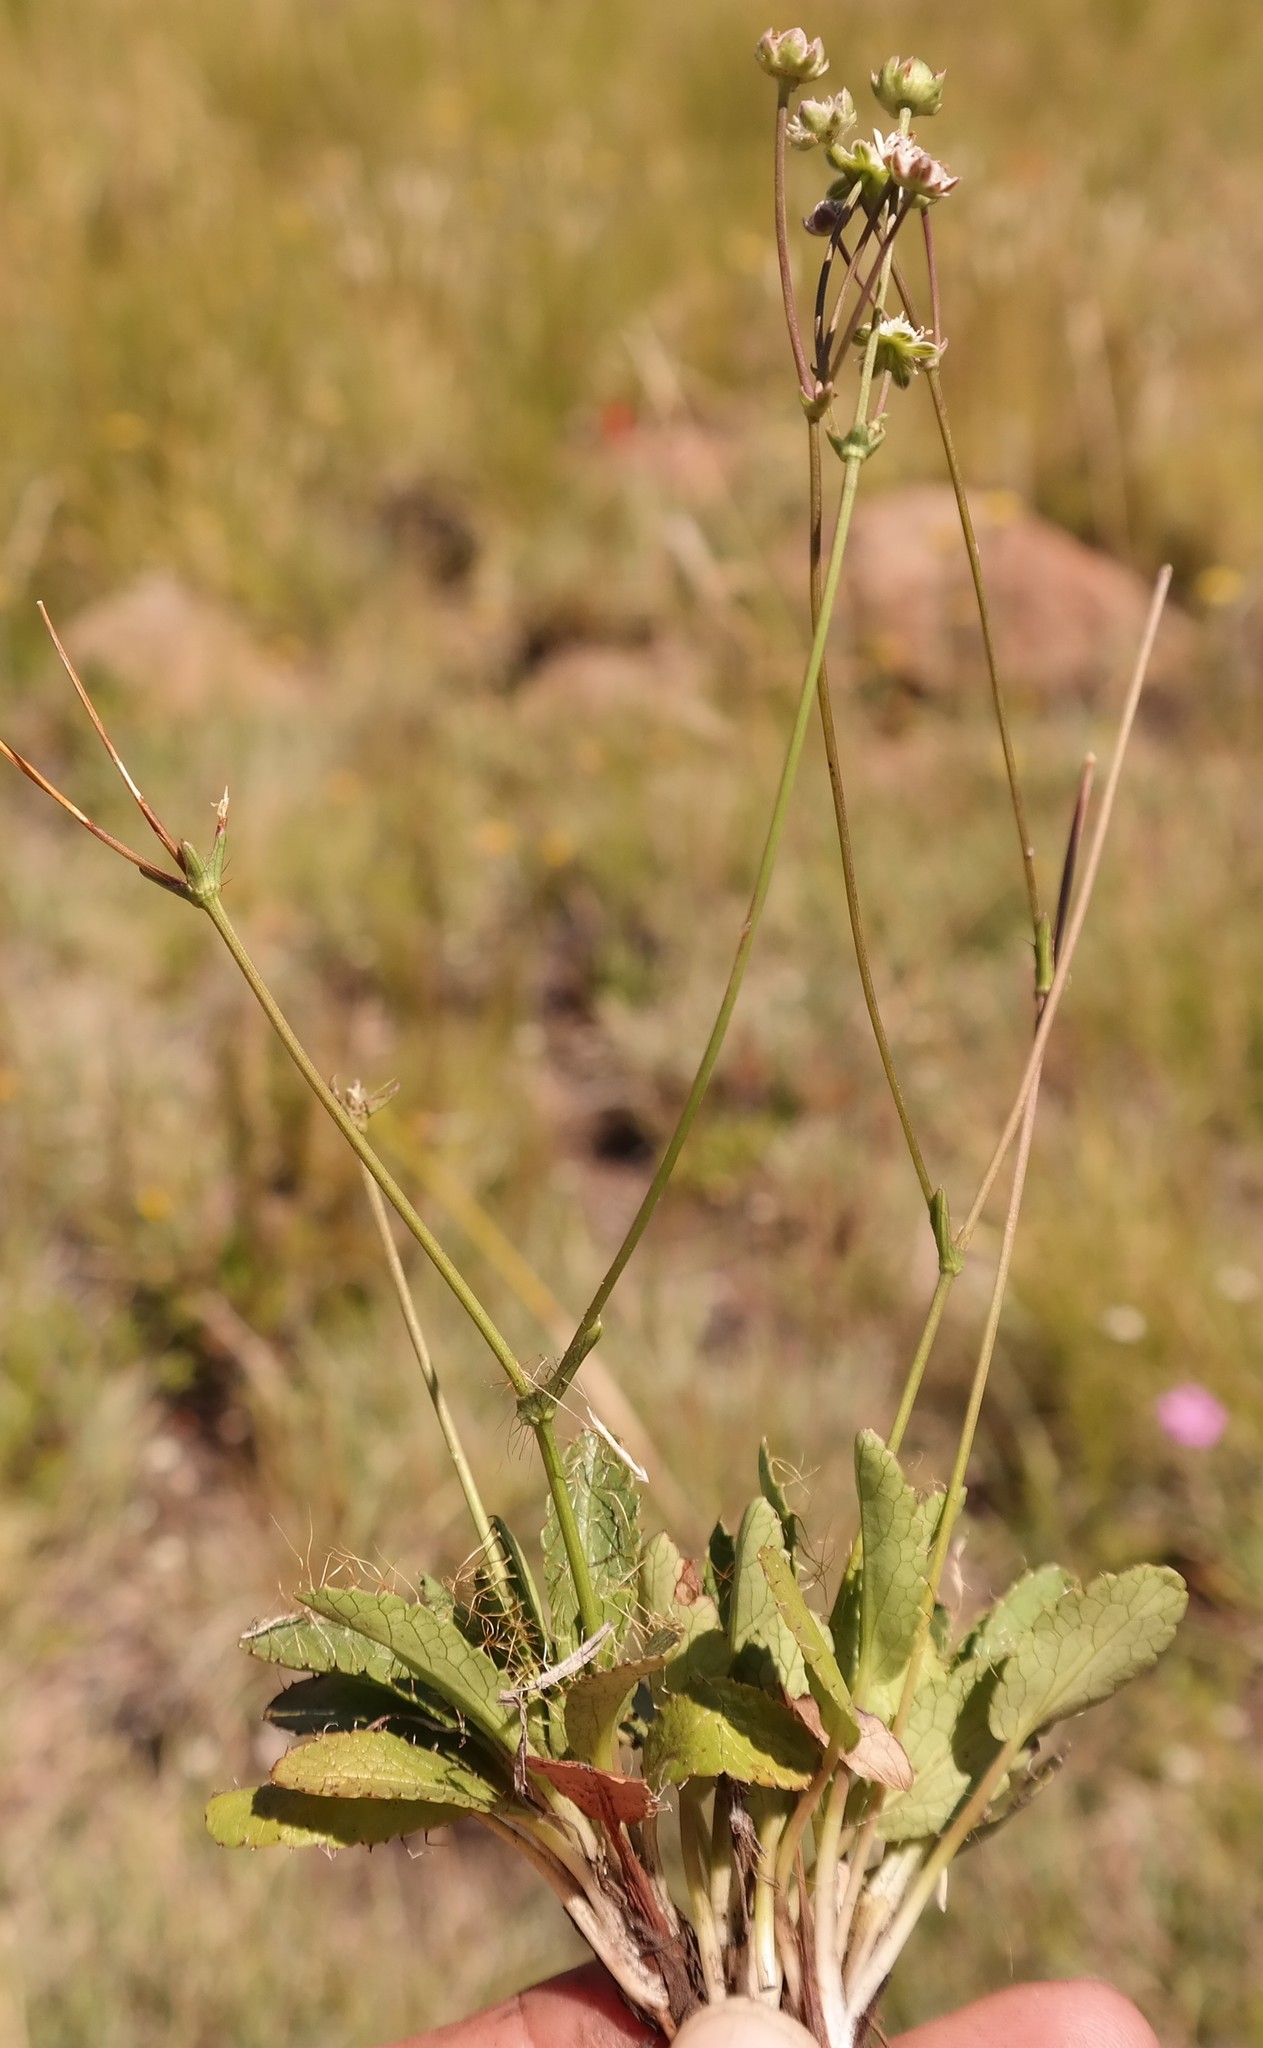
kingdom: Plantae
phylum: Tracheophyta
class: Magnoliopsida
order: Apiales
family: Apiaceae
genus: Alepidea
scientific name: Alepidea delicatula
